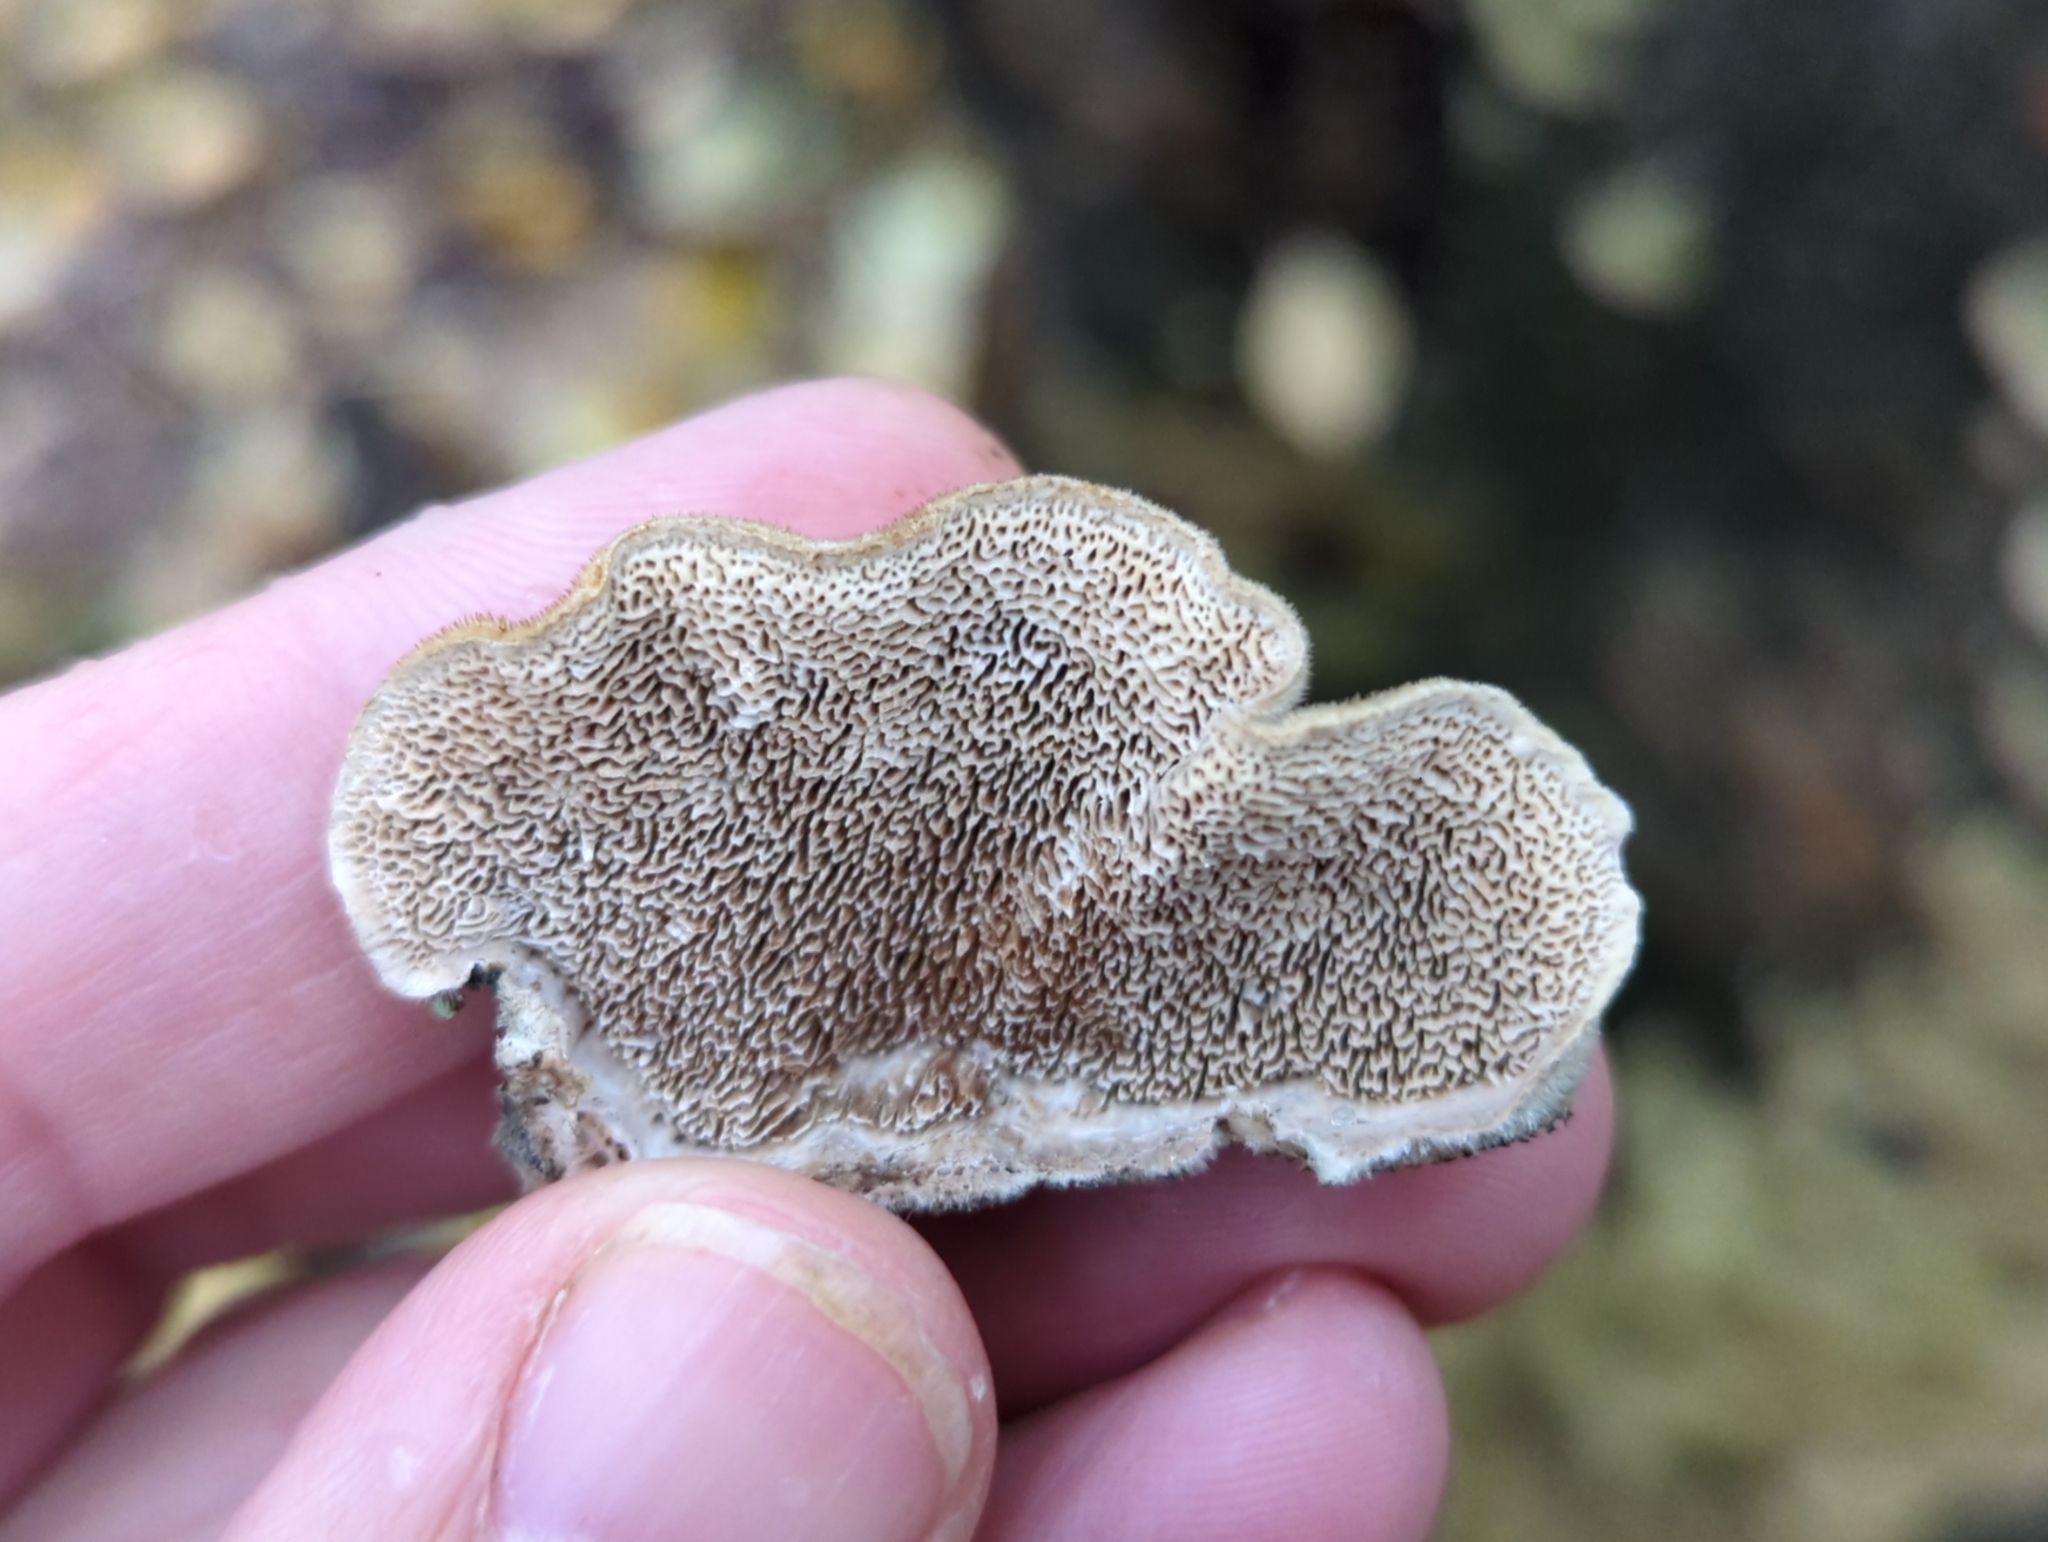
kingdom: Fungi
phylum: Basidiomycota
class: Agaricomycetes
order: Polyporales
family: Cerrenaceae
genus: Cerrena
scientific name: Cerrena unicolor
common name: Mossy maze polypore
